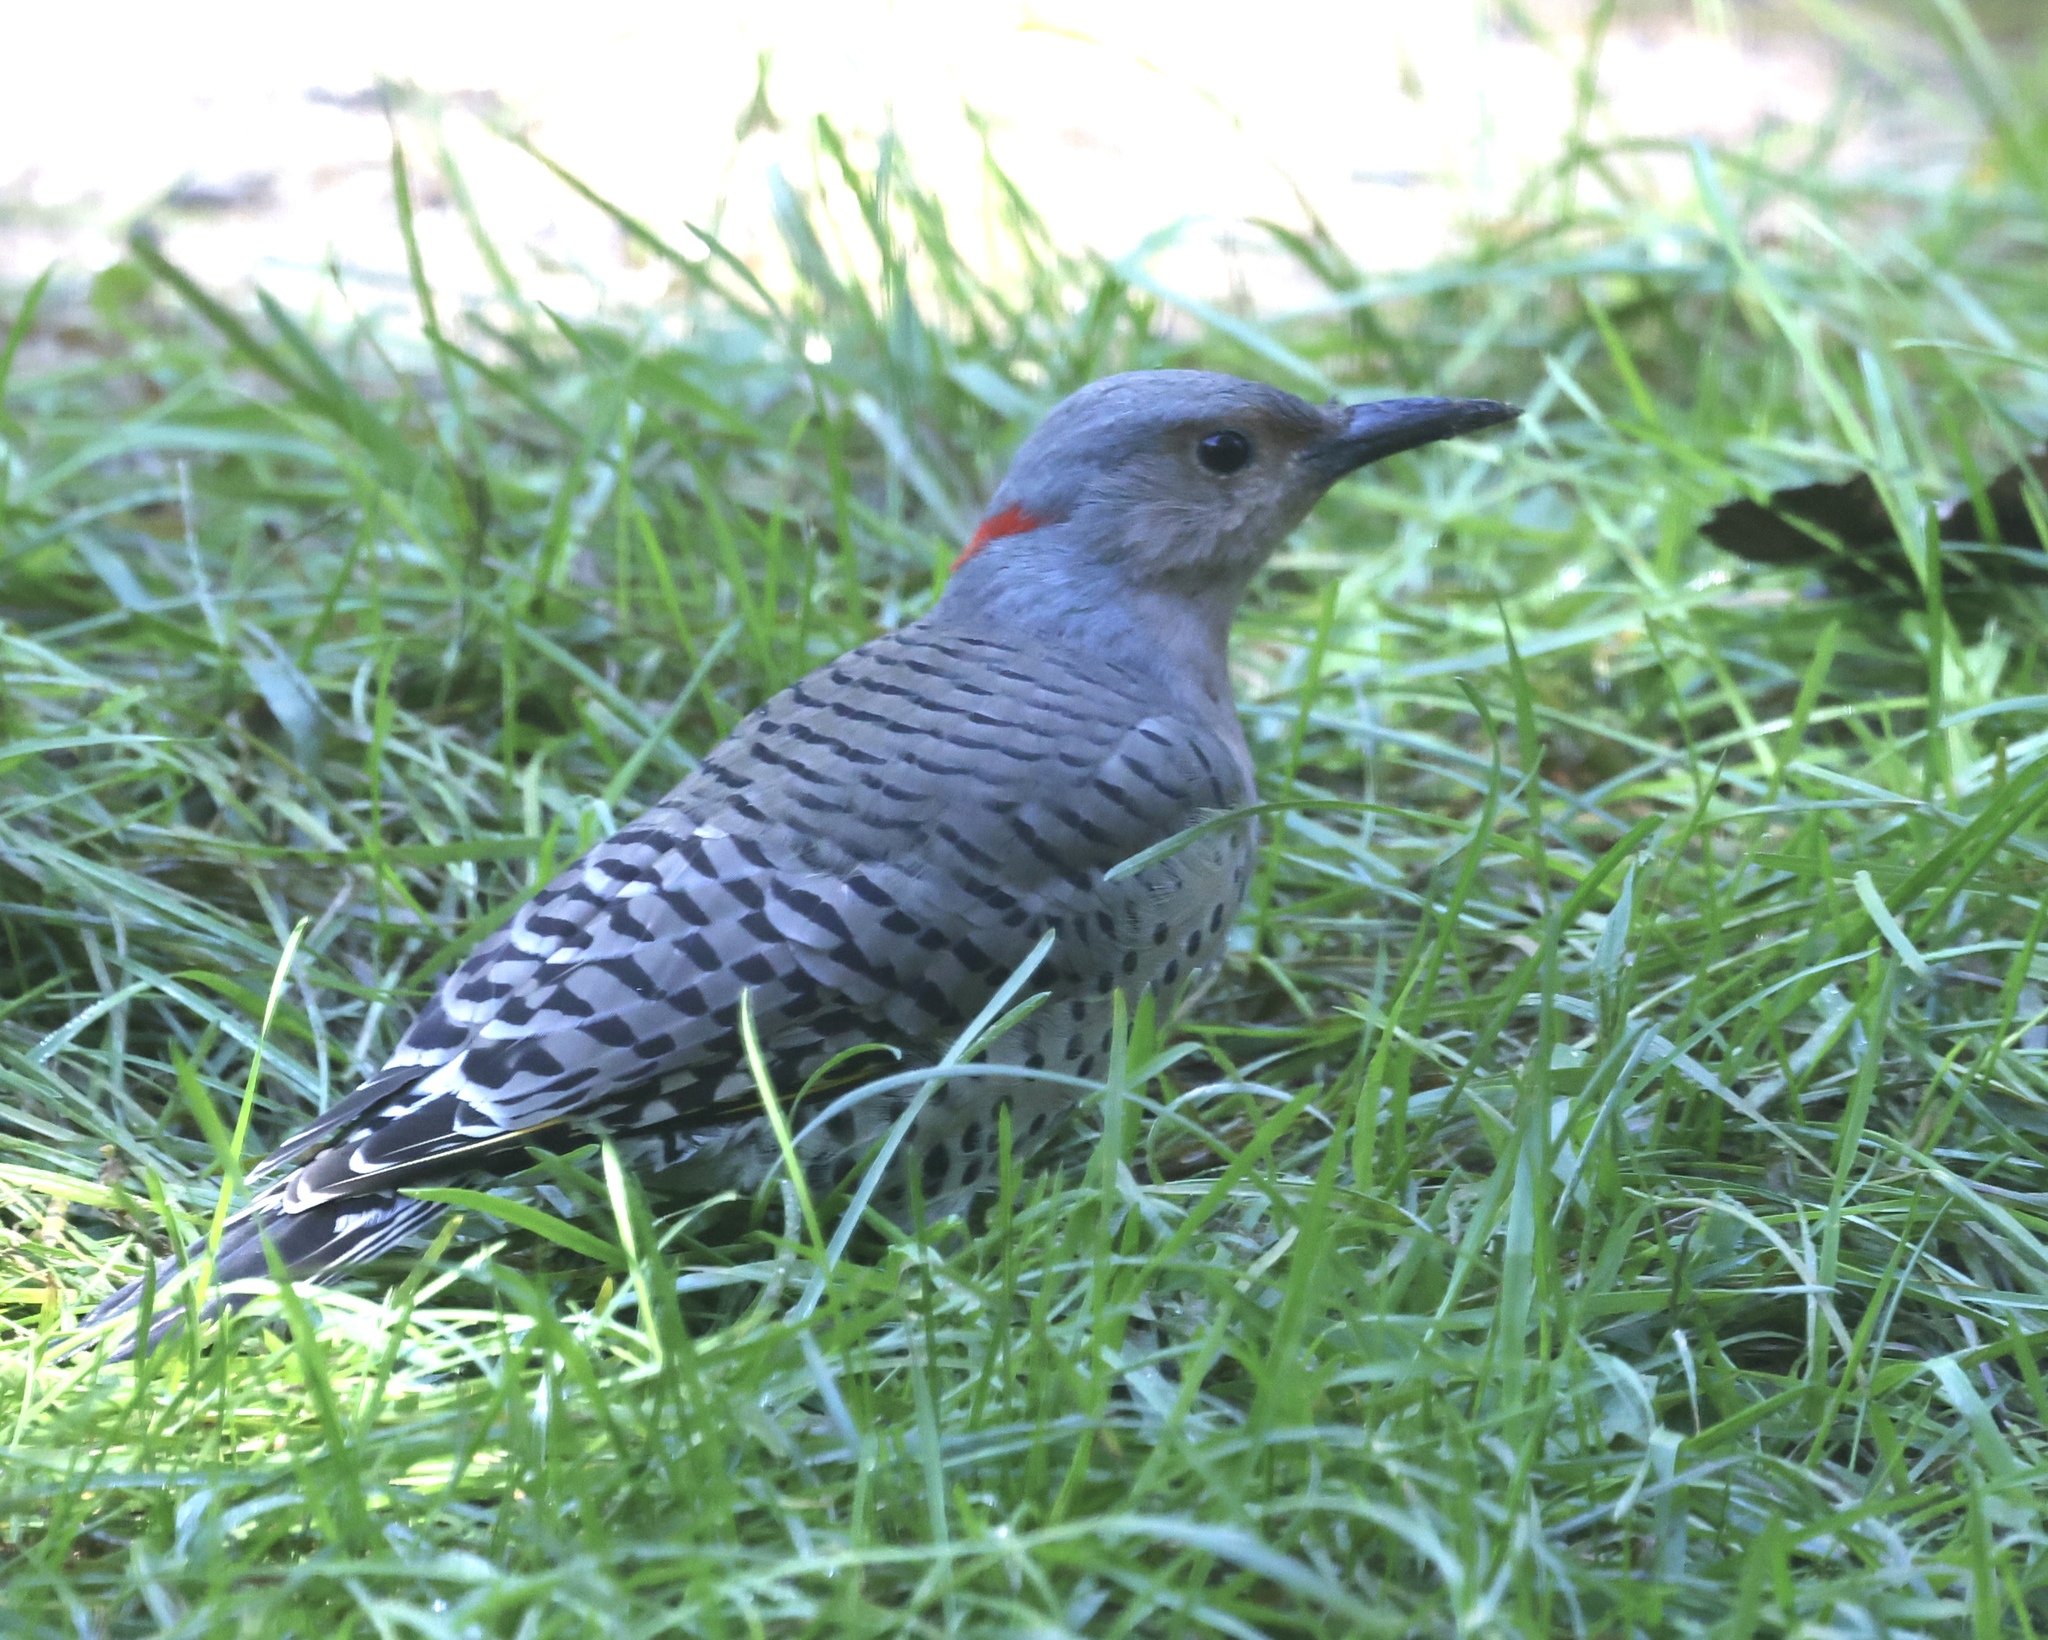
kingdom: Animalia
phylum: Chordata
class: Aves
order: Piciformes
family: Picidae
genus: Colaptes
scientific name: Colaptes auratus
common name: Northern flicker
